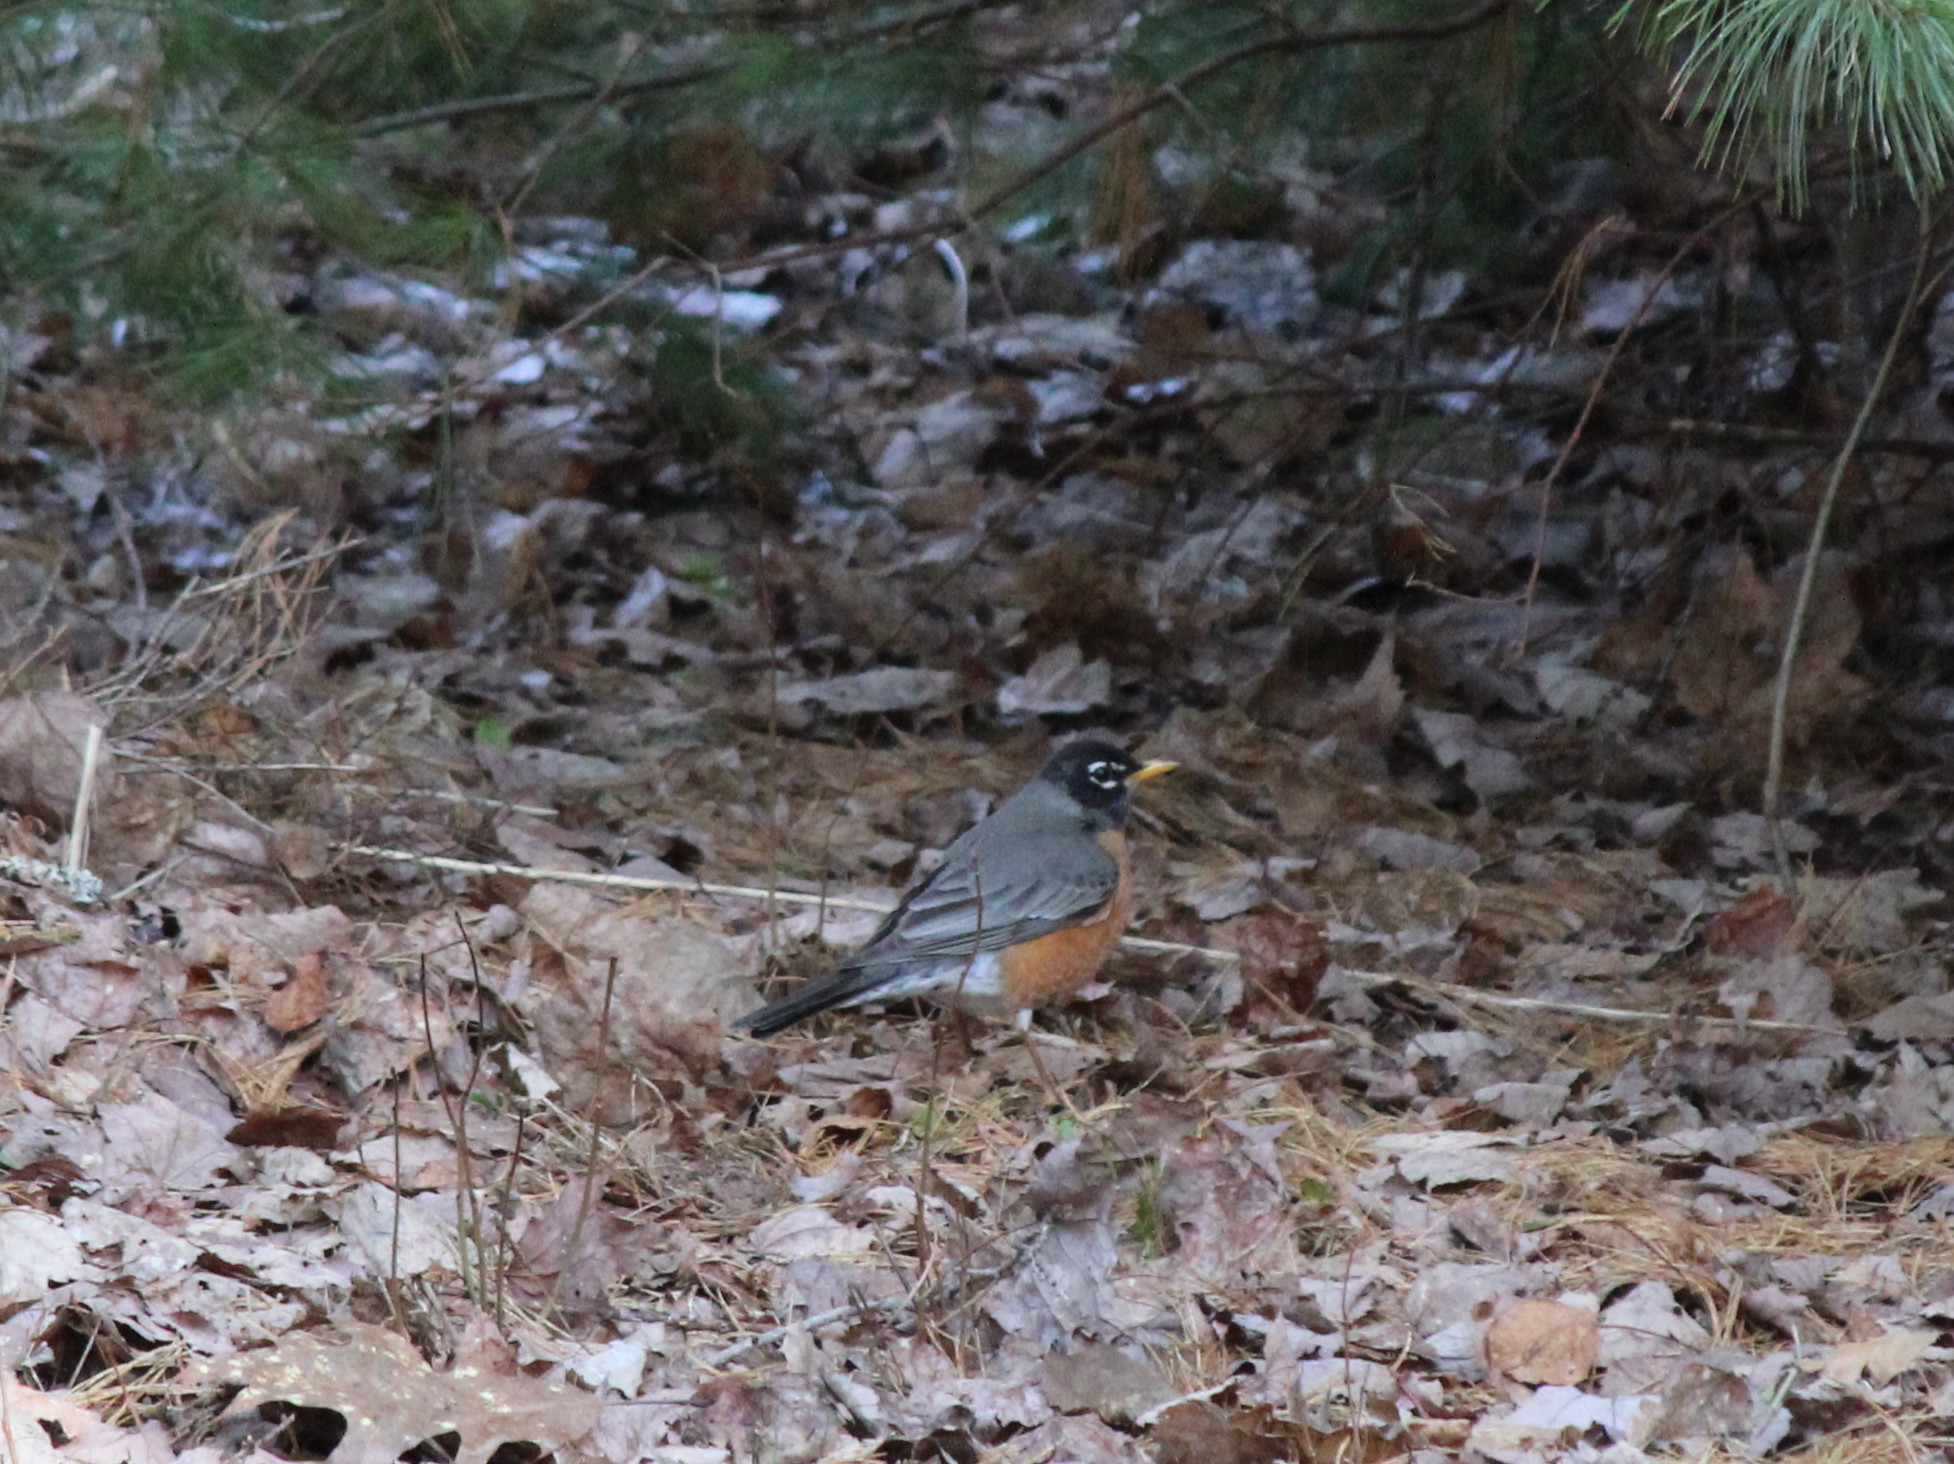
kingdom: Animalia
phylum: Chordata
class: Aves
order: Passeriformes
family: Turdidae
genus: Turdus
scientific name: Turdus migratorius
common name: American robin
